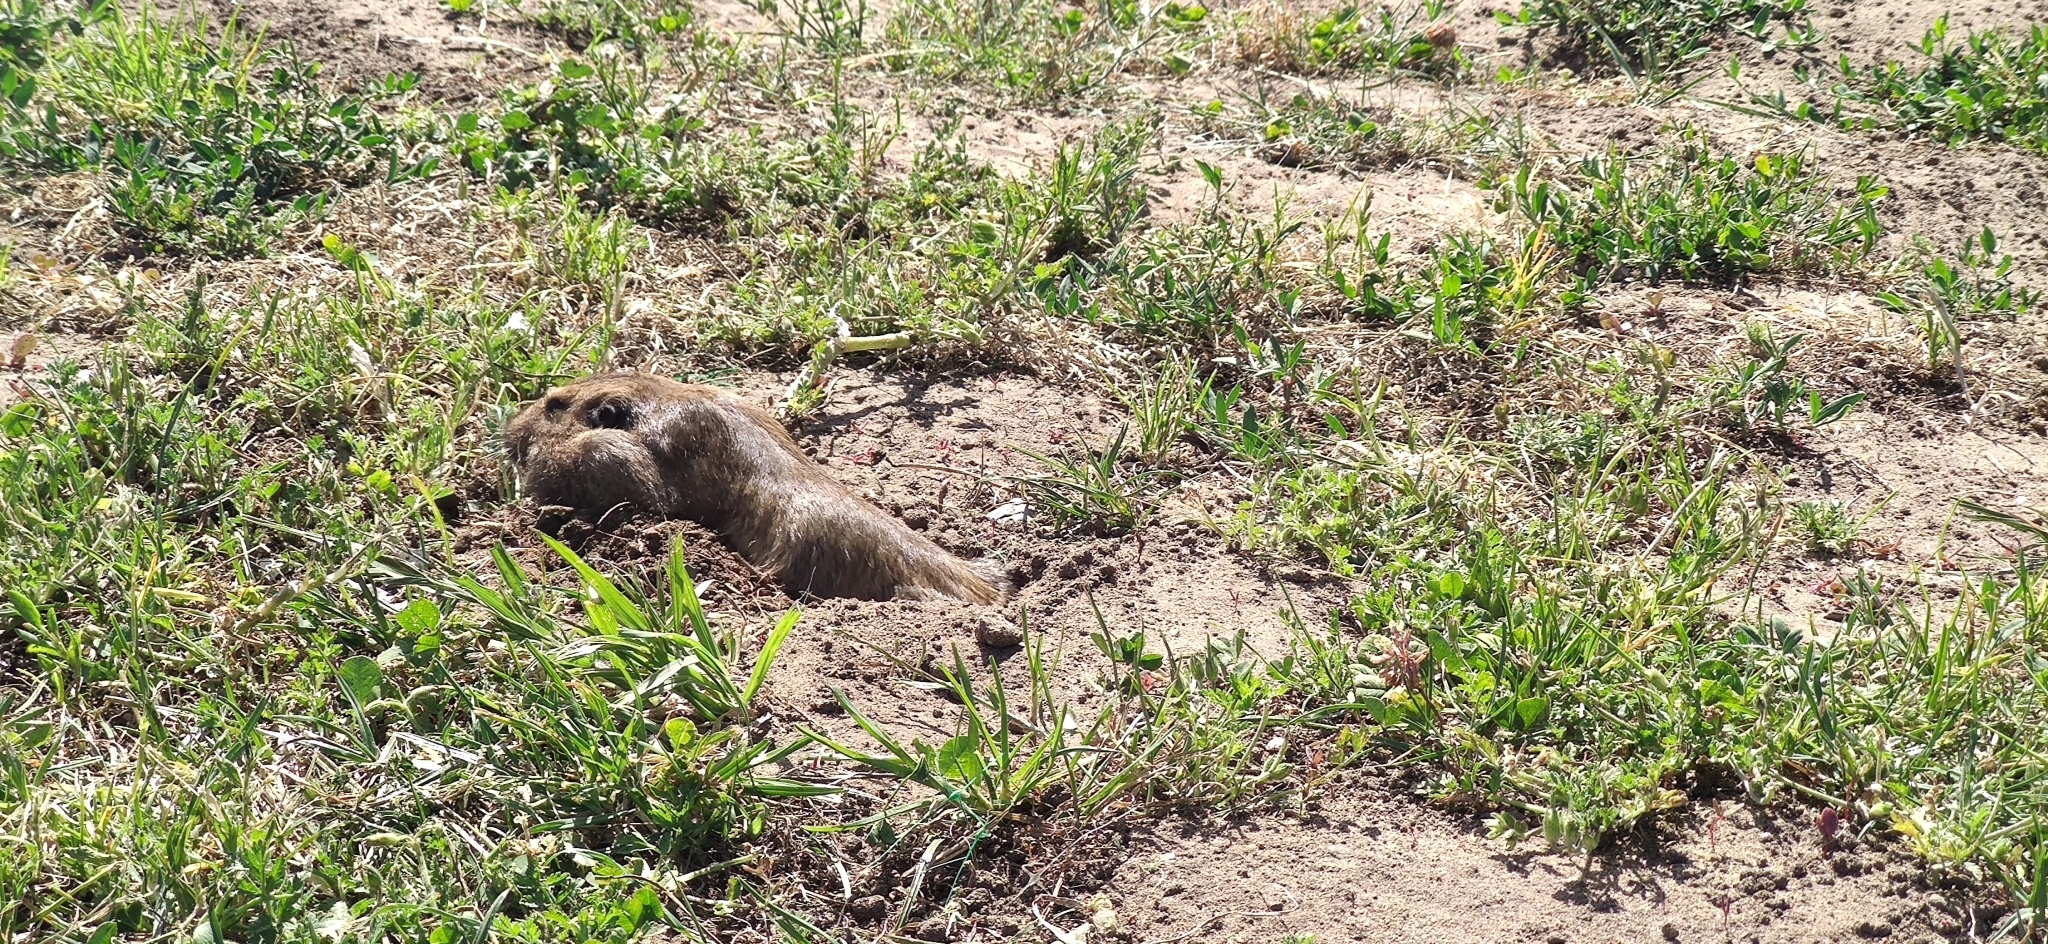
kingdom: Animalia
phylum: Chordata
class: Mammalia
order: Rodentia
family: Geomyidae
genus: Thomomys
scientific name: Thomomys bottae
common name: Botta's pocket gopher
